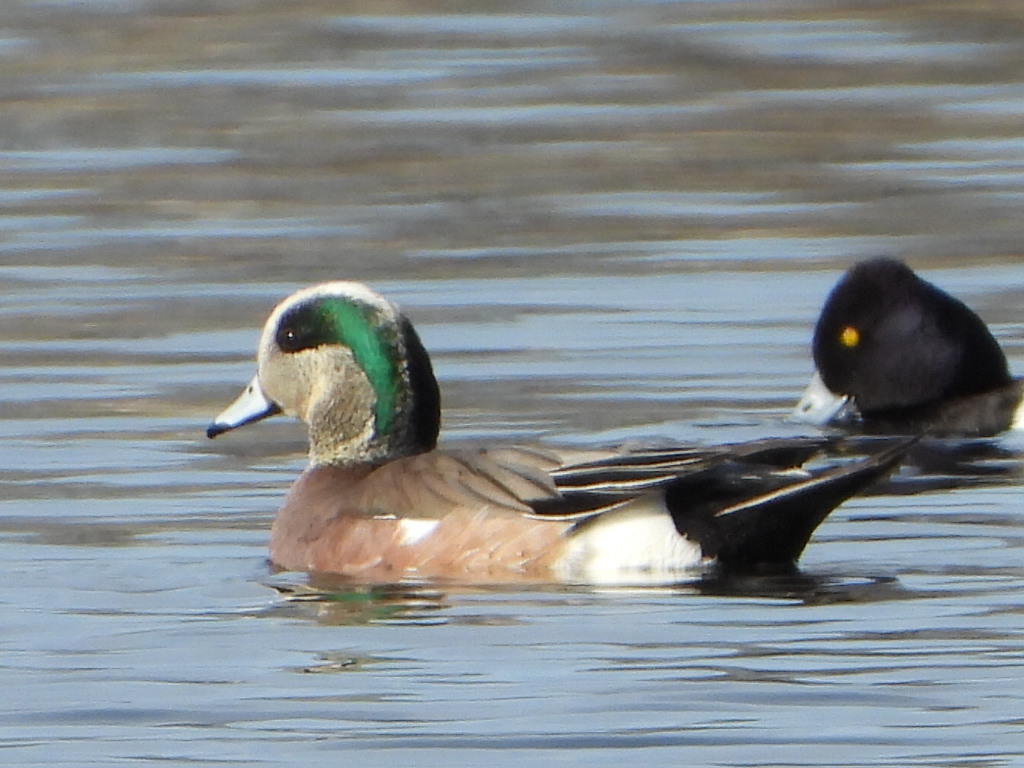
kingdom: Animalia
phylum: Chordata
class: Aves
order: Anseriformes
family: Anatidae
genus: Mareca
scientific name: Mareca americana
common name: American wigeon
